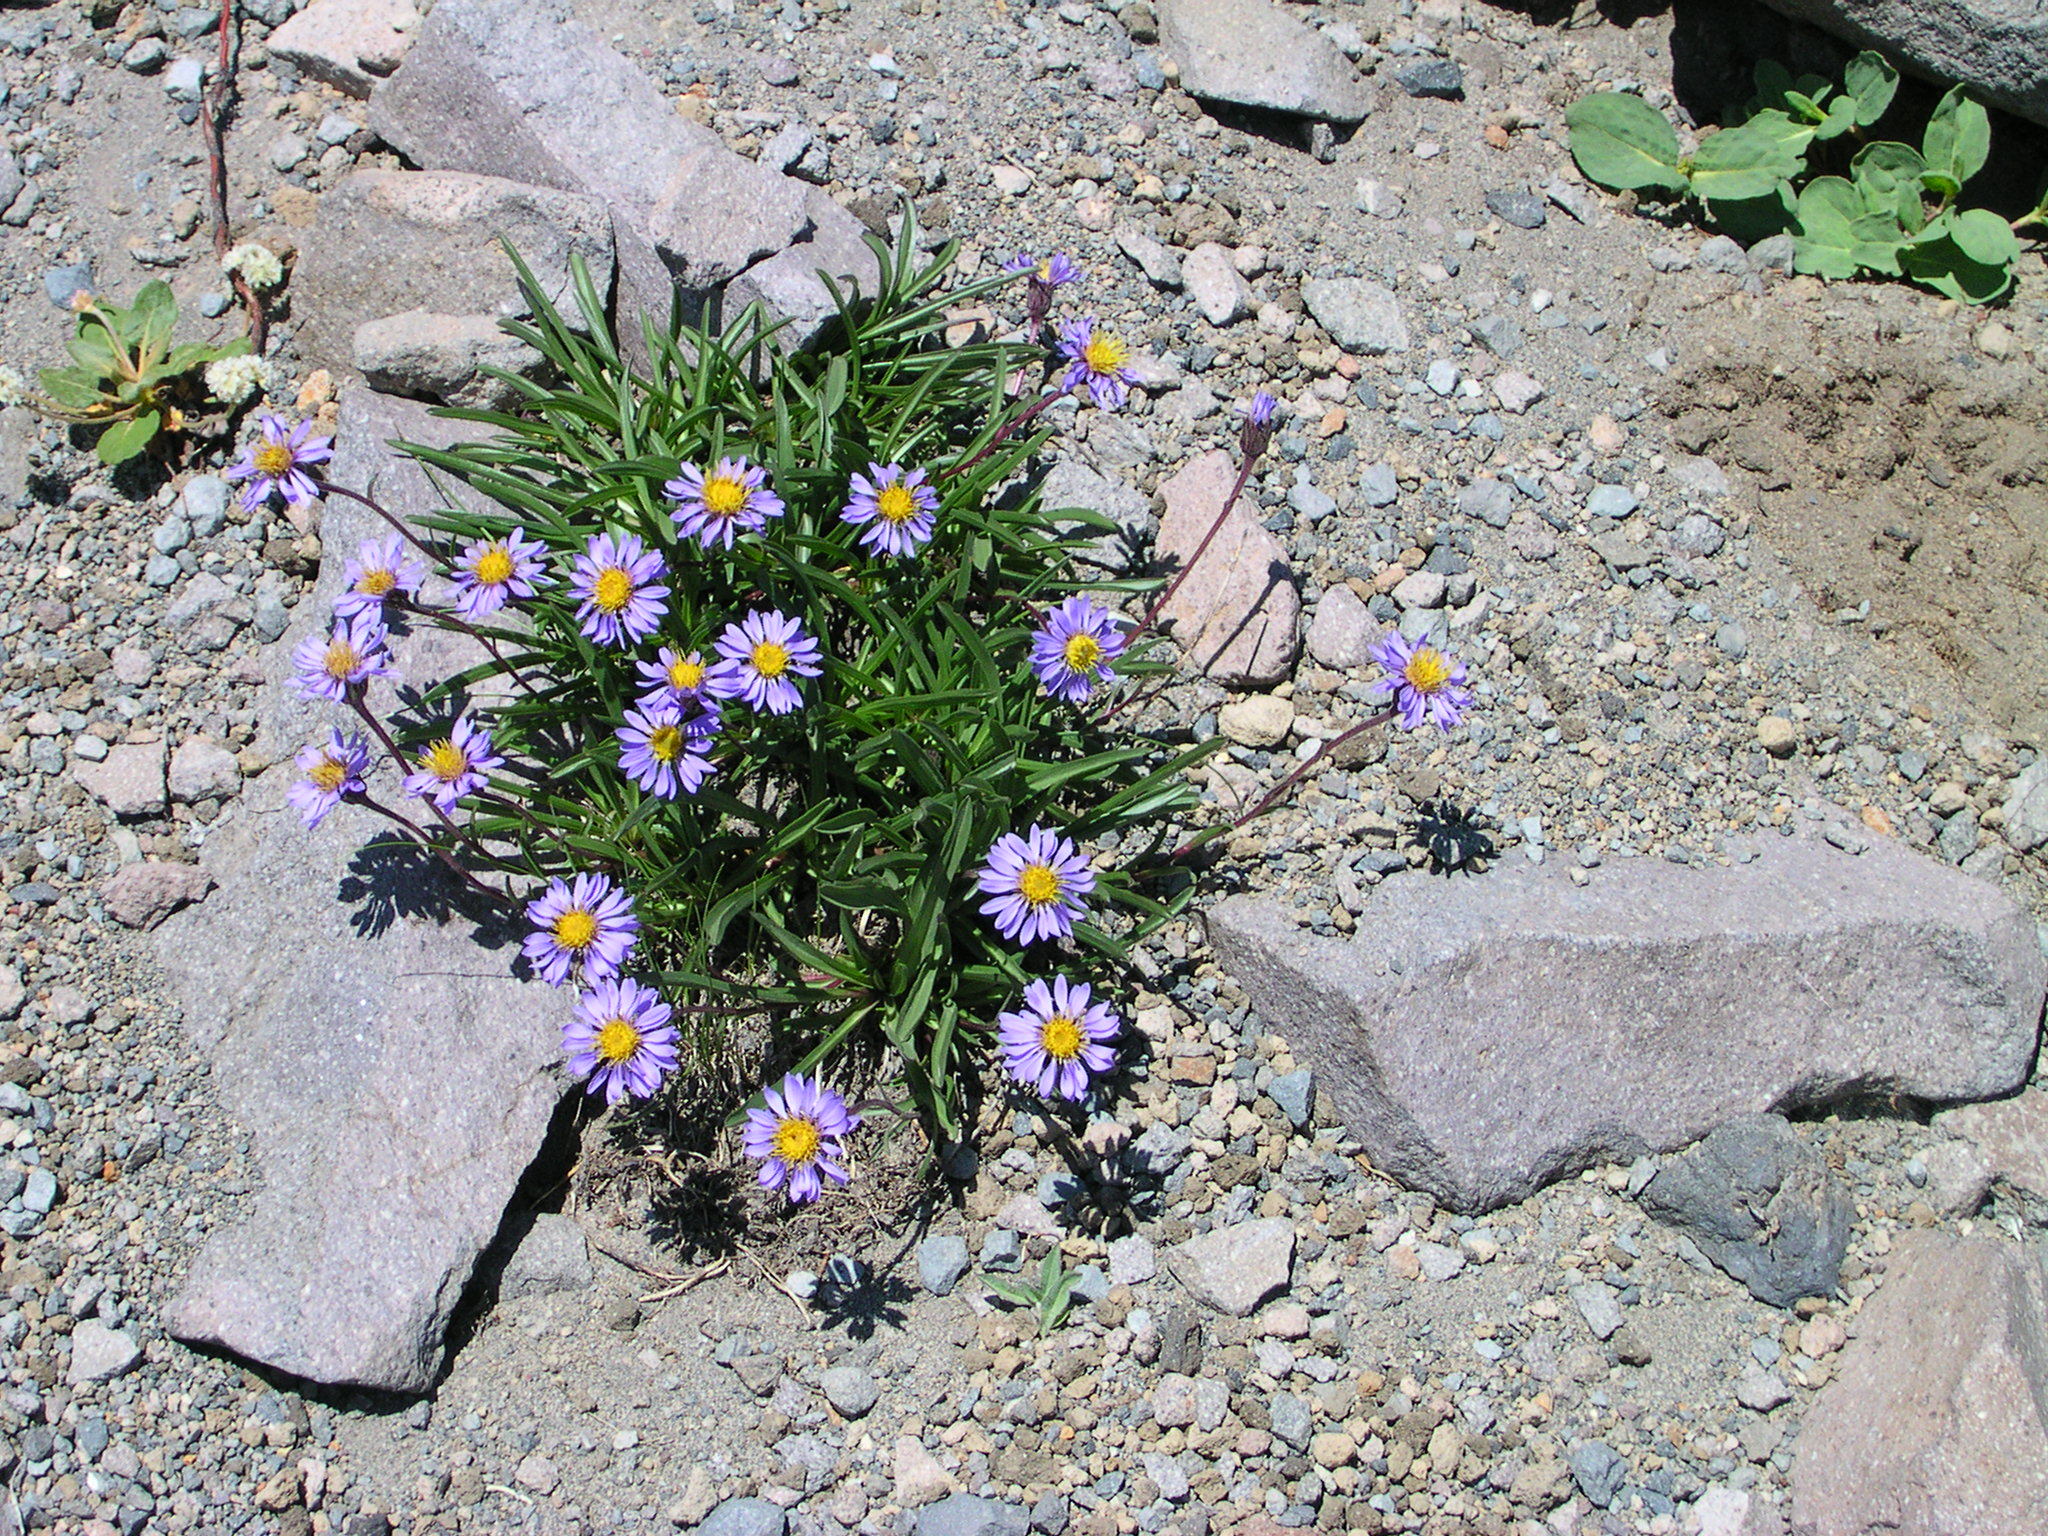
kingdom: Plantae
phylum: Tracheophyta
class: Magnoliopsida
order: Asterales
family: Asteraceae
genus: Oreostemma
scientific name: Oreostemma alpigenum
